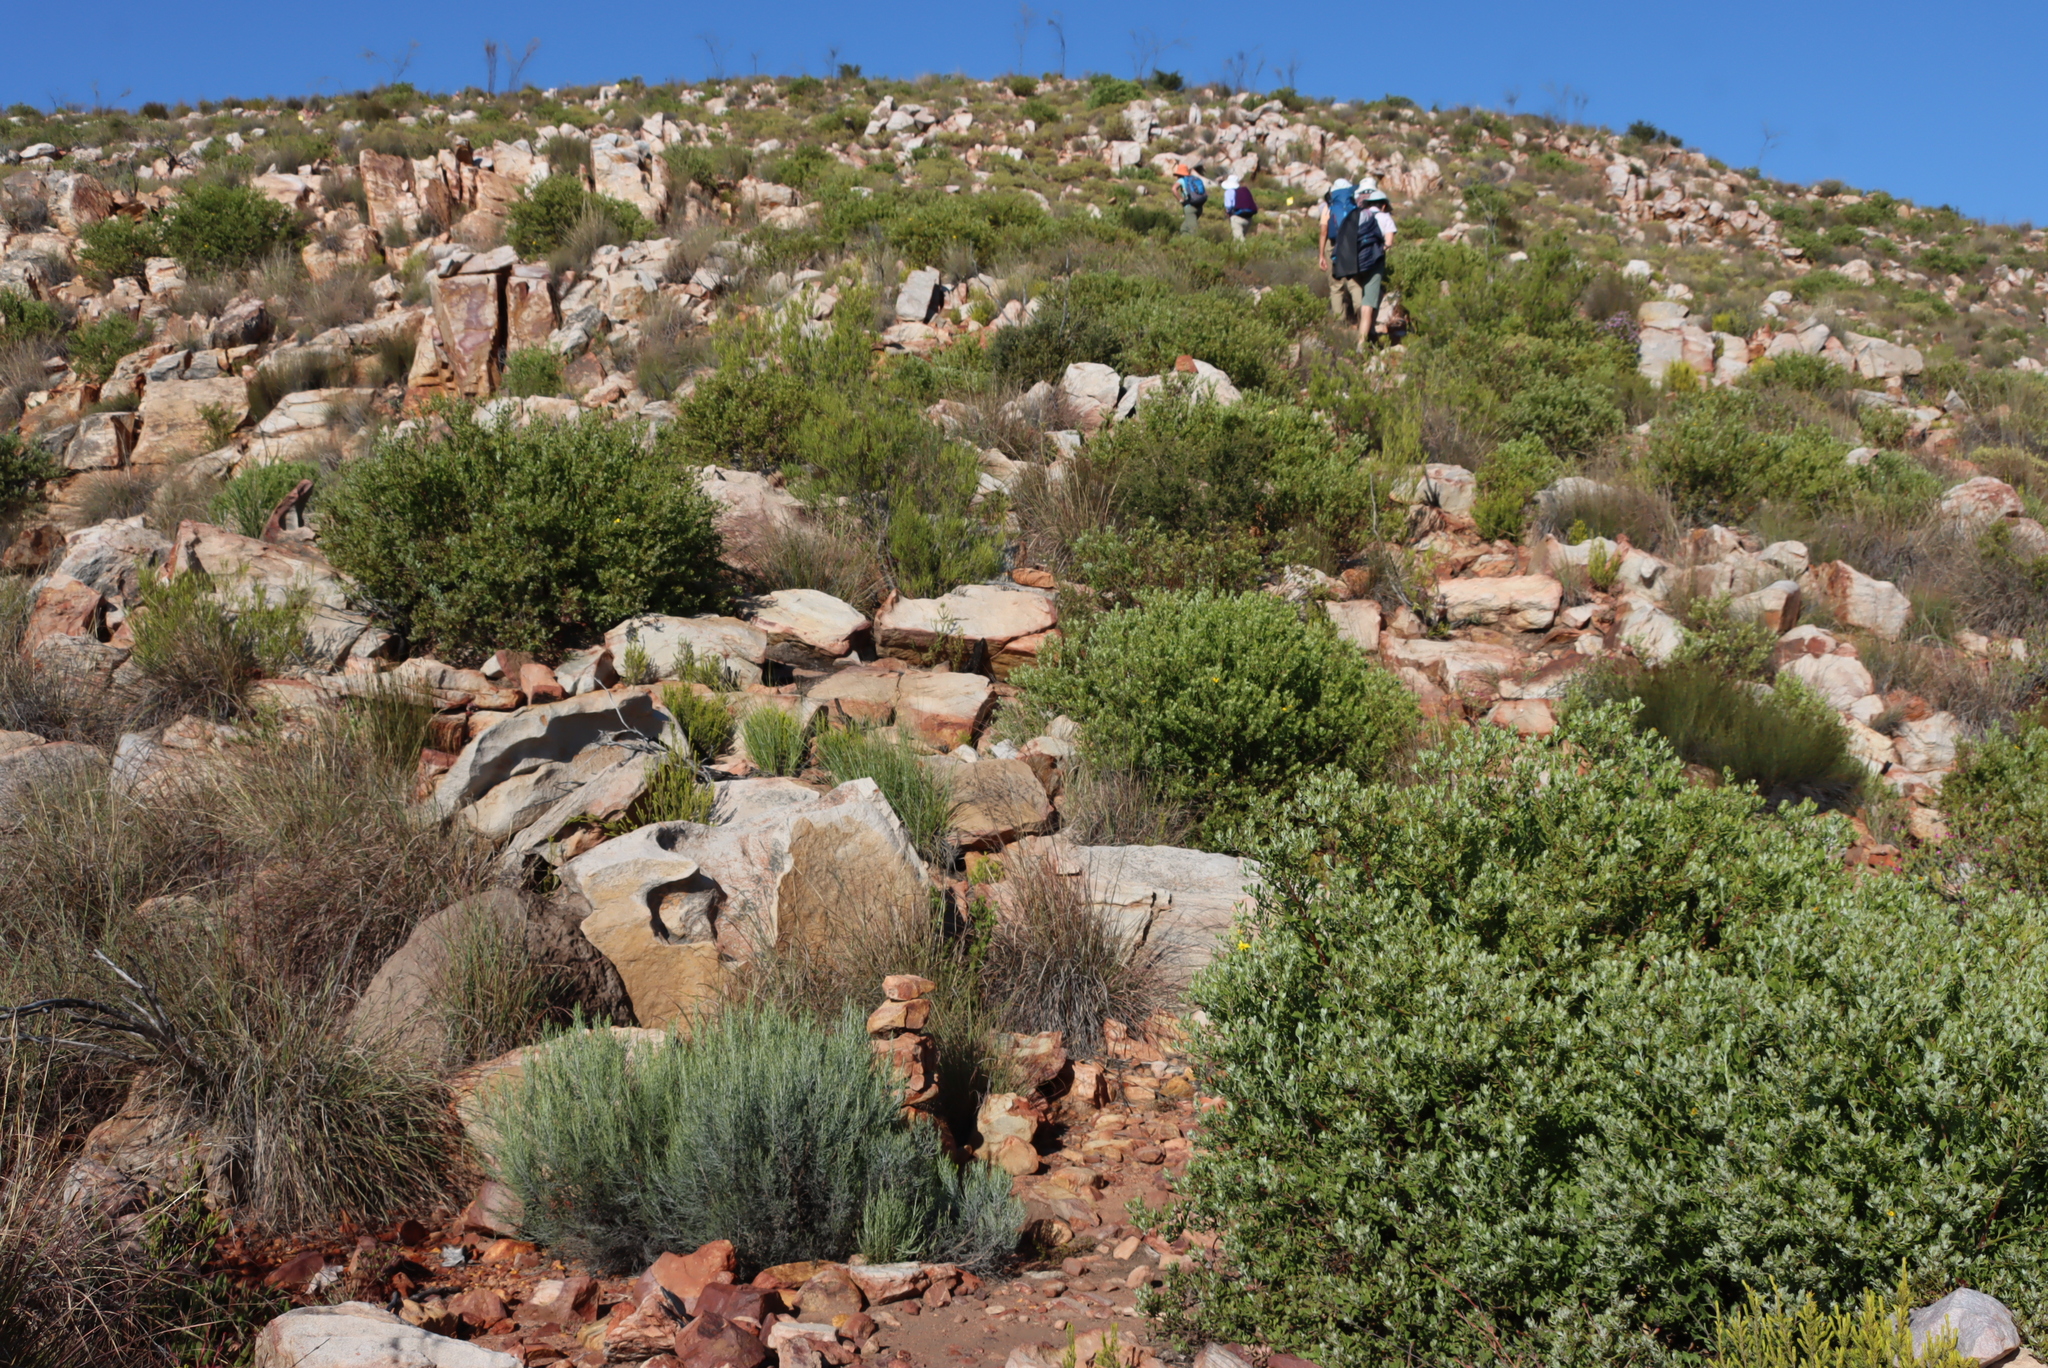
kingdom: Plantae
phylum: Tracheophyta
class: Magnoliopsida
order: Asterales
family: Asteraceae
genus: Dicerothamnus
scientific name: Dicerothamnus rhinocerotis
